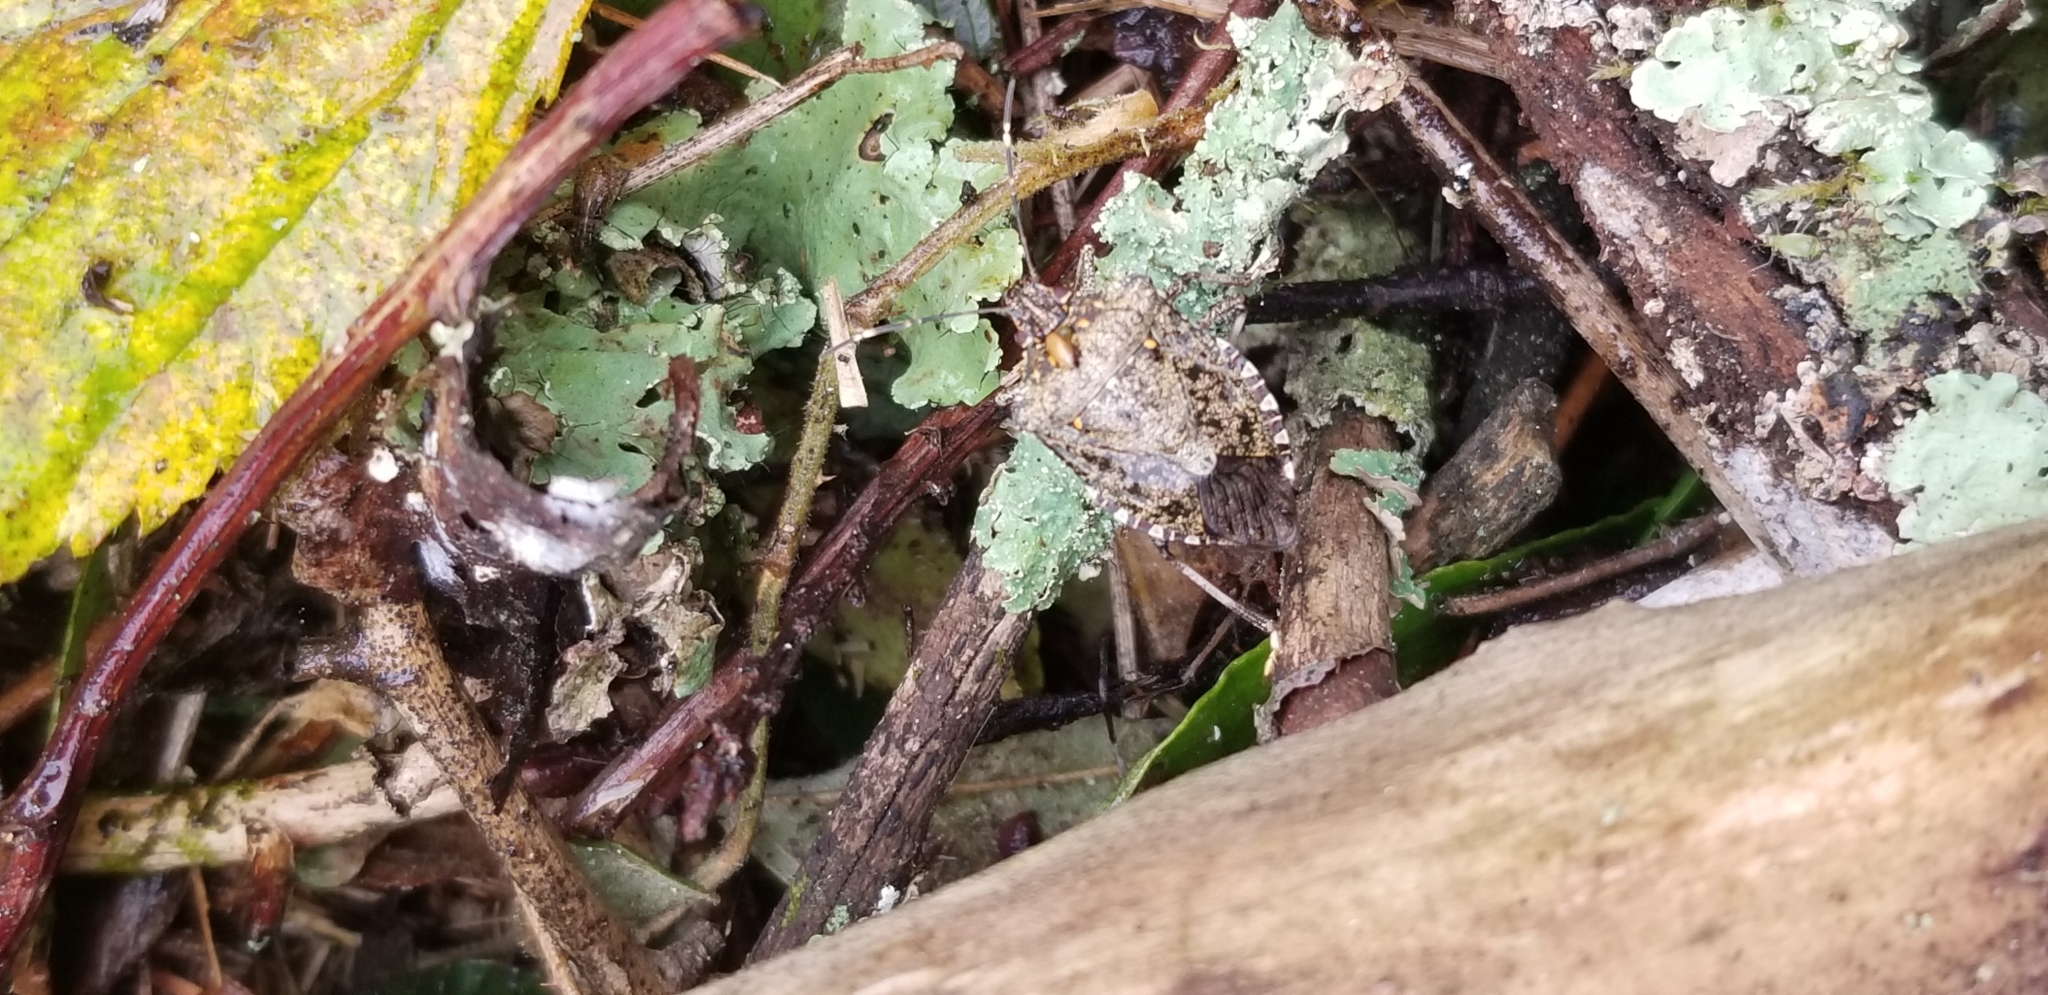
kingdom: Animalia
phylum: Arthropoda
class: Insecta
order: Hemiptera
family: Pentatomidae
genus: Halyomorpha
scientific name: Halyomorpha halys
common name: Brown marmorated stink bug
